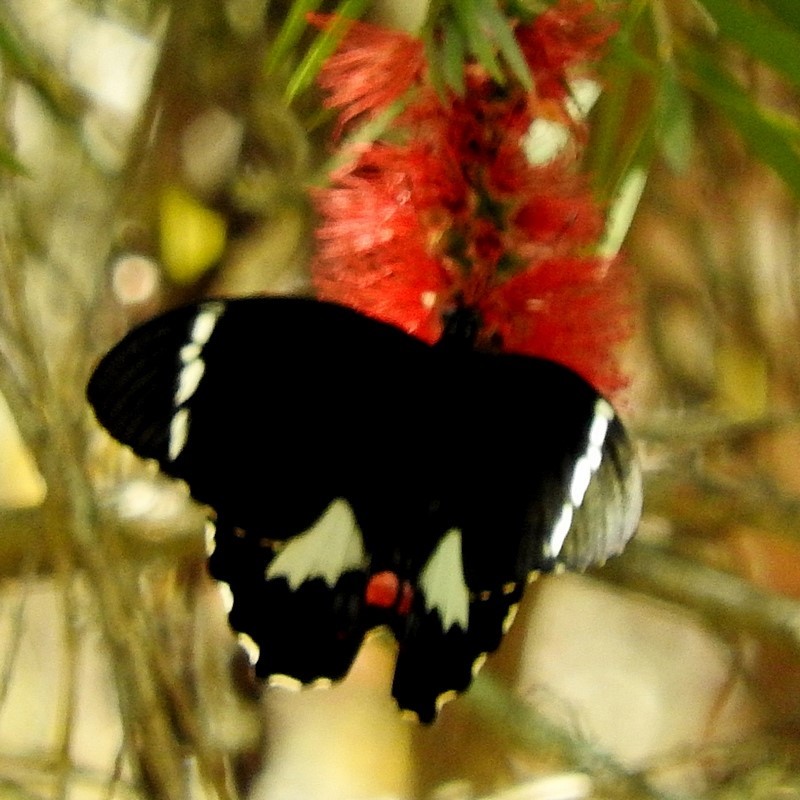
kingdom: Animalia
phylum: Arthropoda
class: Insecta
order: Lepidoptera
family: Papilionidae
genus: Papilio
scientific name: Papilio aegeus
